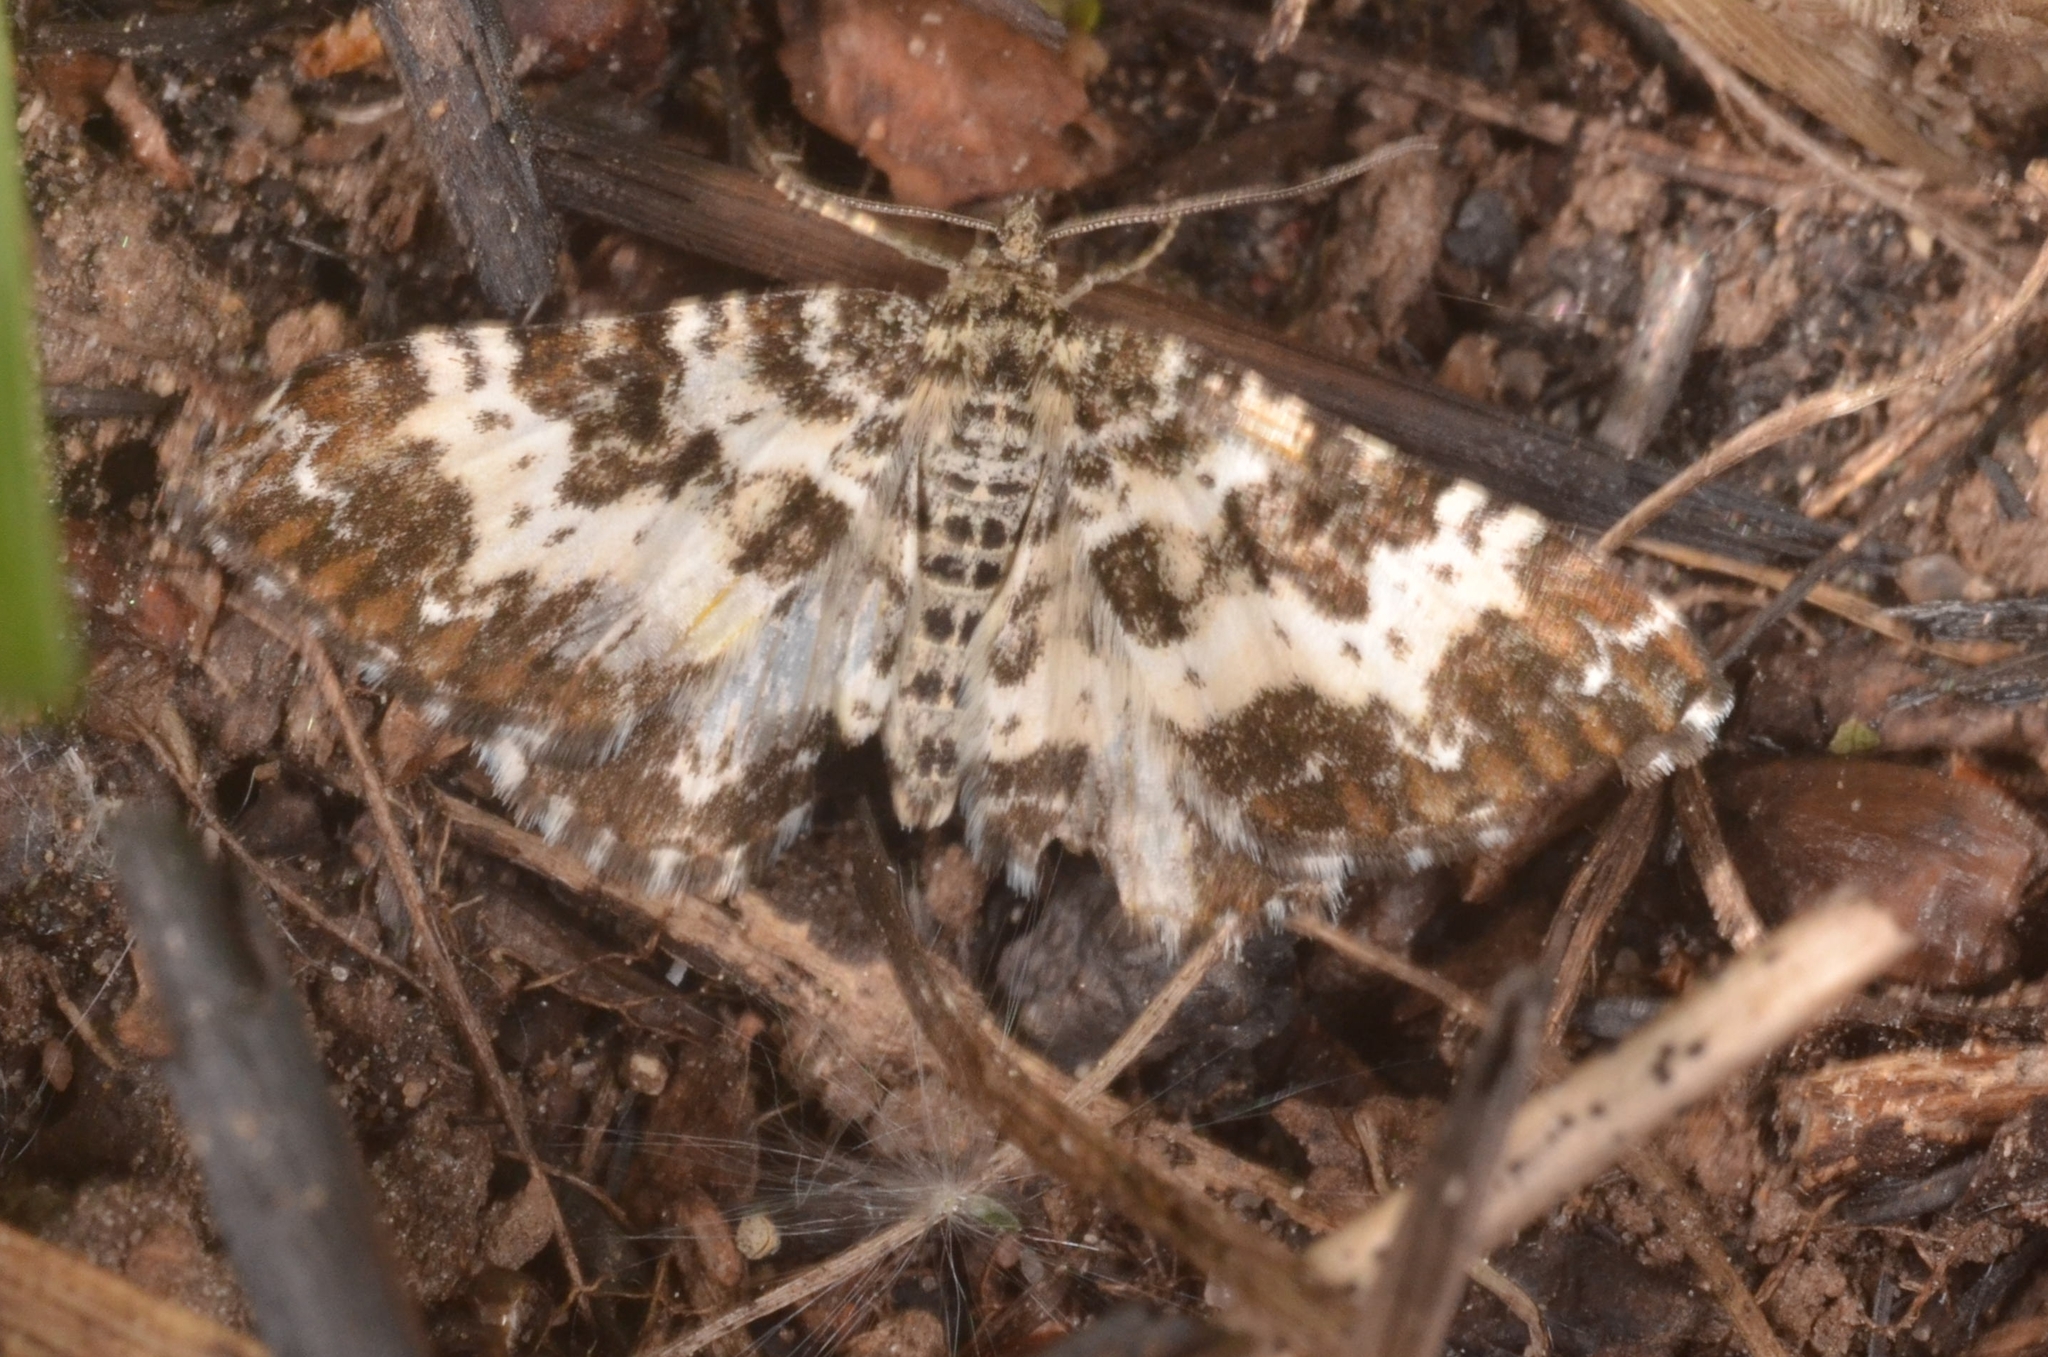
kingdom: Animalia
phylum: Arthropoda
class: Insecta
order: Lepidoptera
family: Geometridae
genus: Epirrhoe
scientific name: Epirrhoe tristata
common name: Small argent & sable
